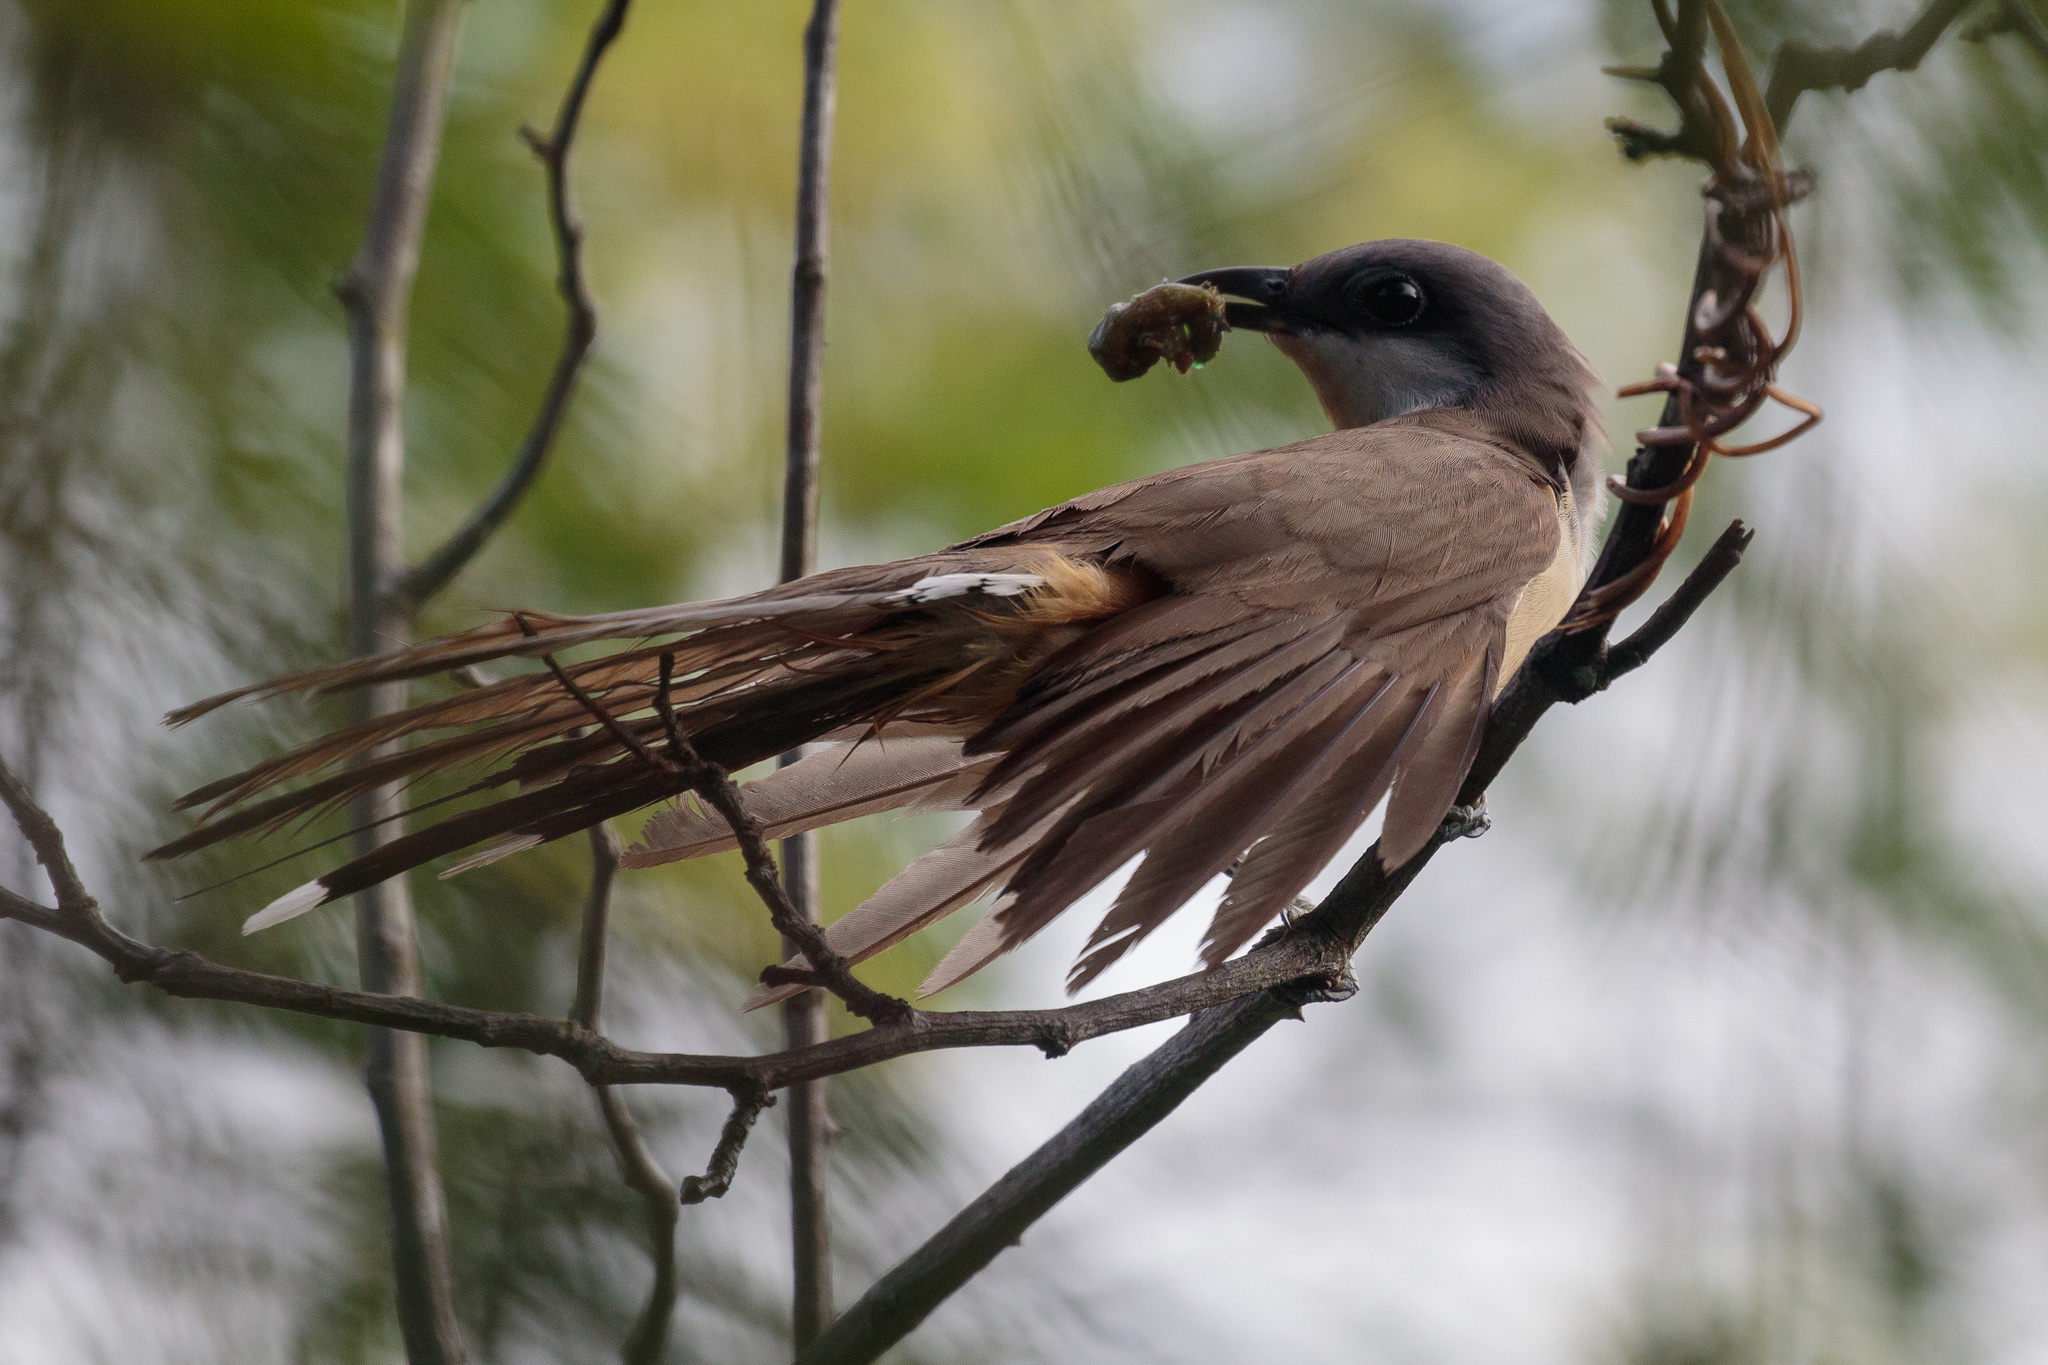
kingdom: Animalia
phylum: Chordata
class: Aves
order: Cuculiformes
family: Cuculidae
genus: Coccyzus
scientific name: Coccyzus melacoryphus
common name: Dark-billed cuckoo
